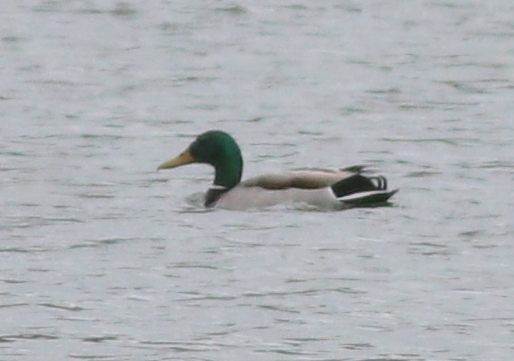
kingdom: Animalia
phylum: Chordata
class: Aves
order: Anseriformes
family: Anatidae
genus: Anas
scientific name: Anas platyrhynchos
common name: Mallard
